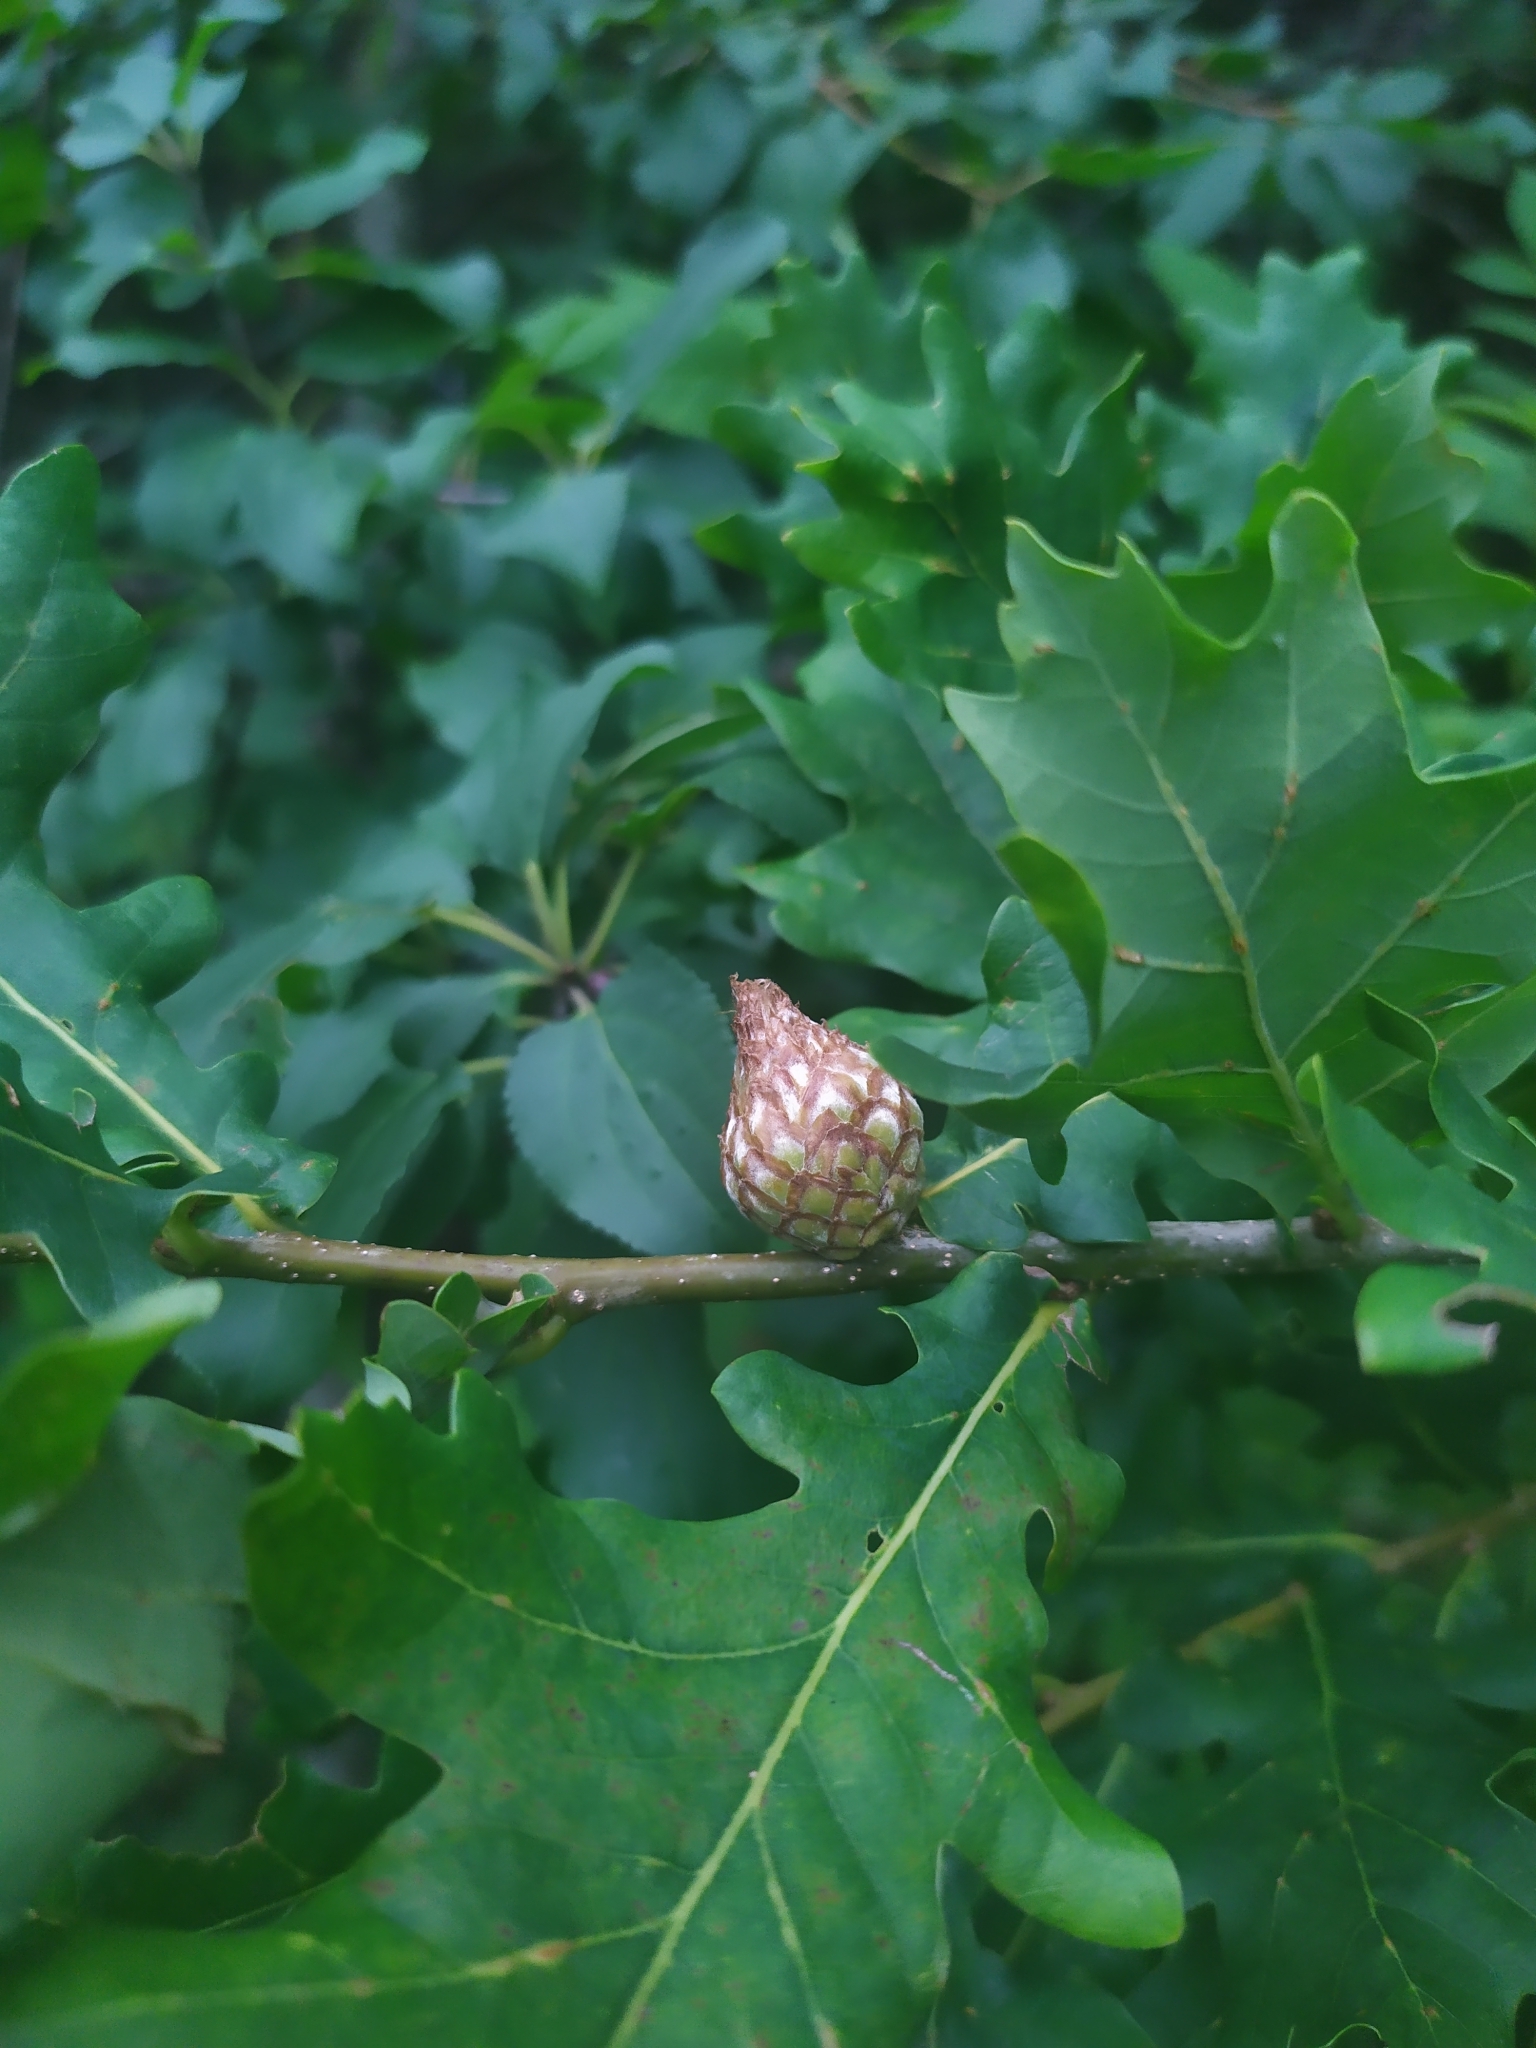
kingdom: Animalia
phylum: Arthropoda
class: Insecta
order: Hymenoptera
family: Cynipidae
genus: Andricus
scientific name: Andricus foecundatrix
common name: Artichoke gall
